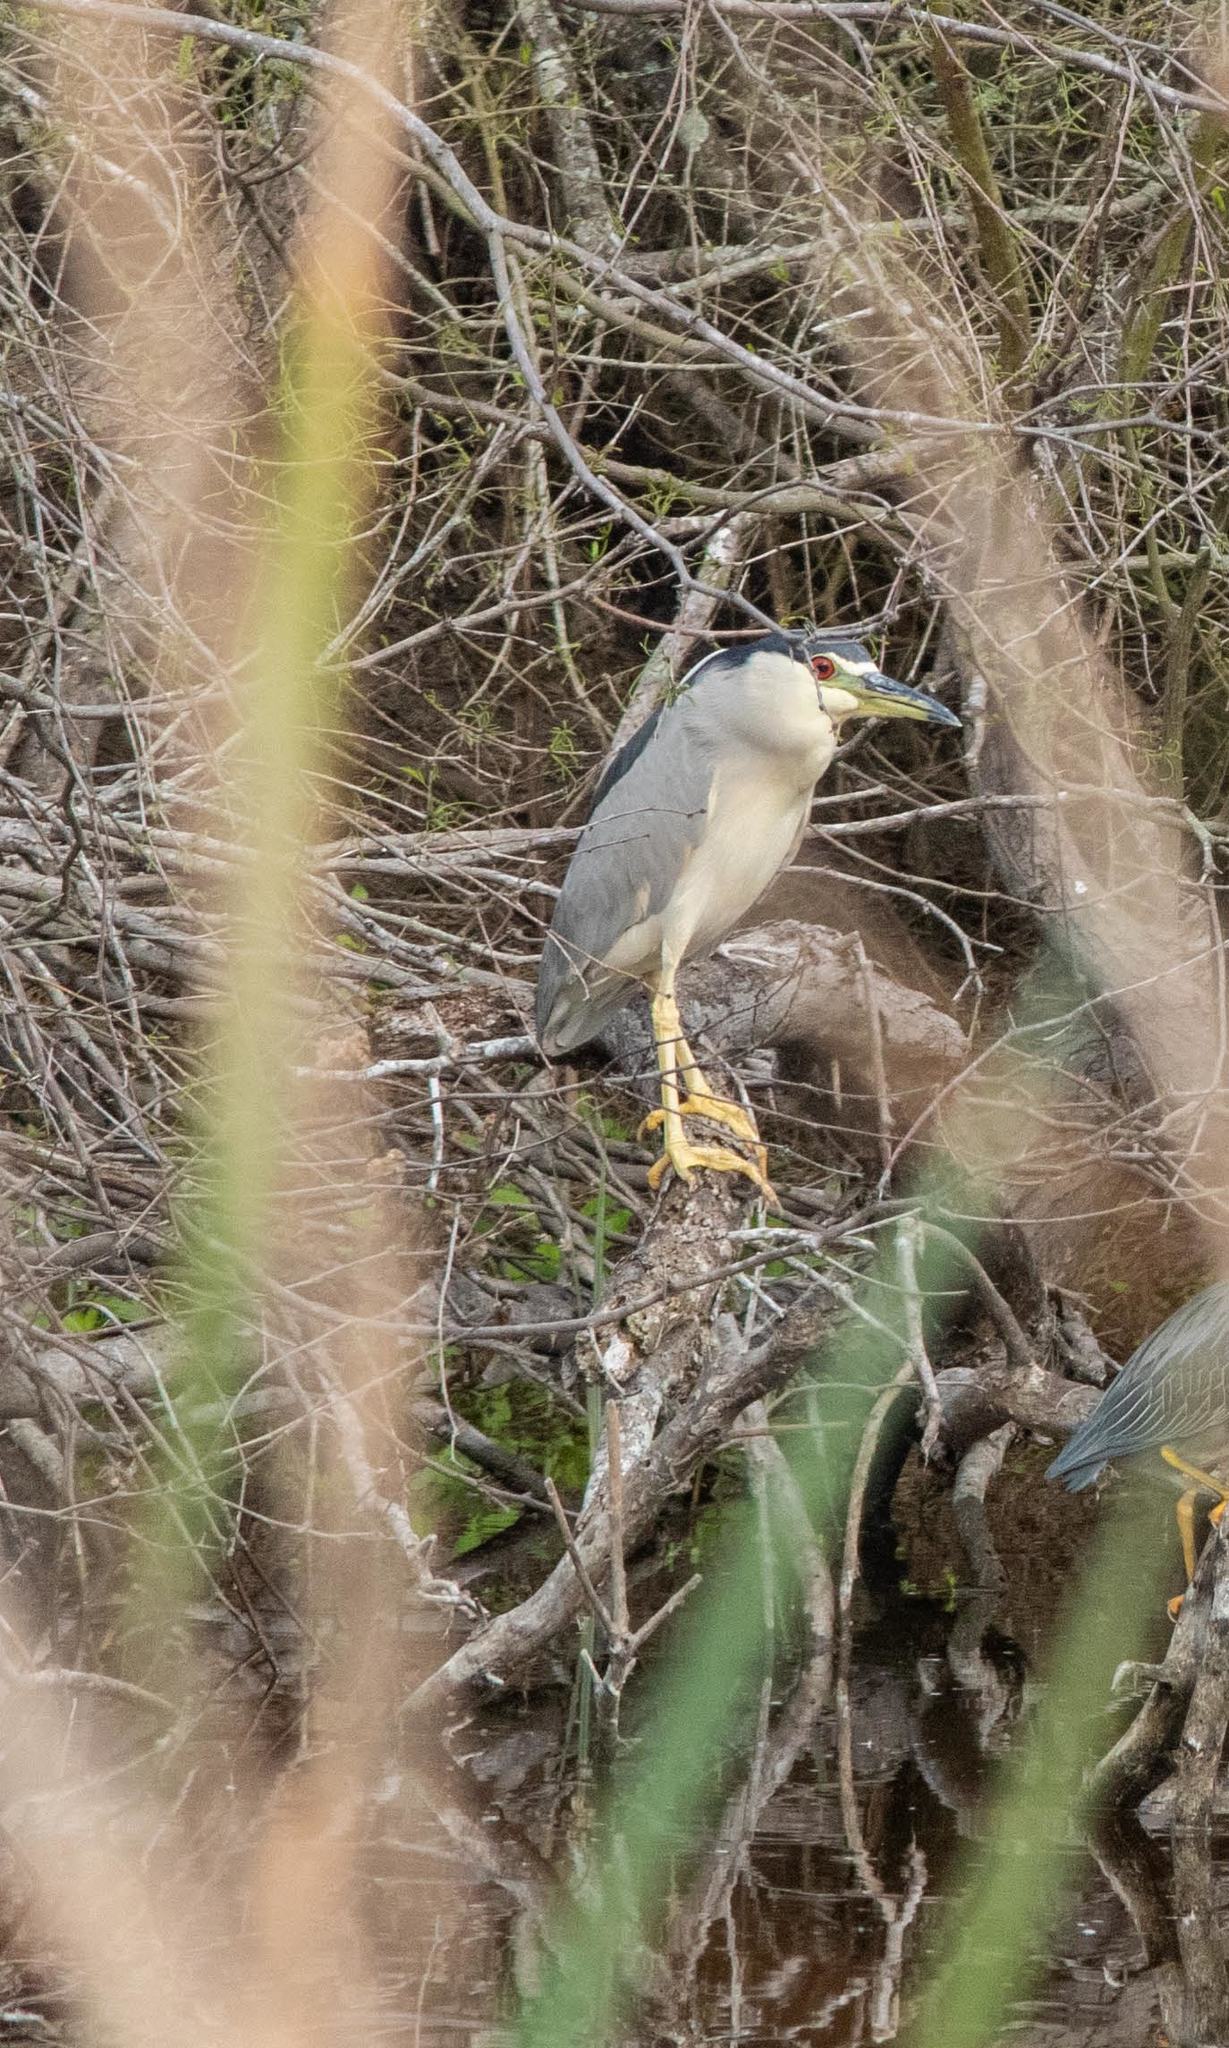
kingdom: Animalia
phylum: Chordata
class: Aves
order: Pelecaniformes
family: Ardeidae
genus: Nycticorax
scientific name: Nycticorax nycticorax
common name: Black-crowned night heron
